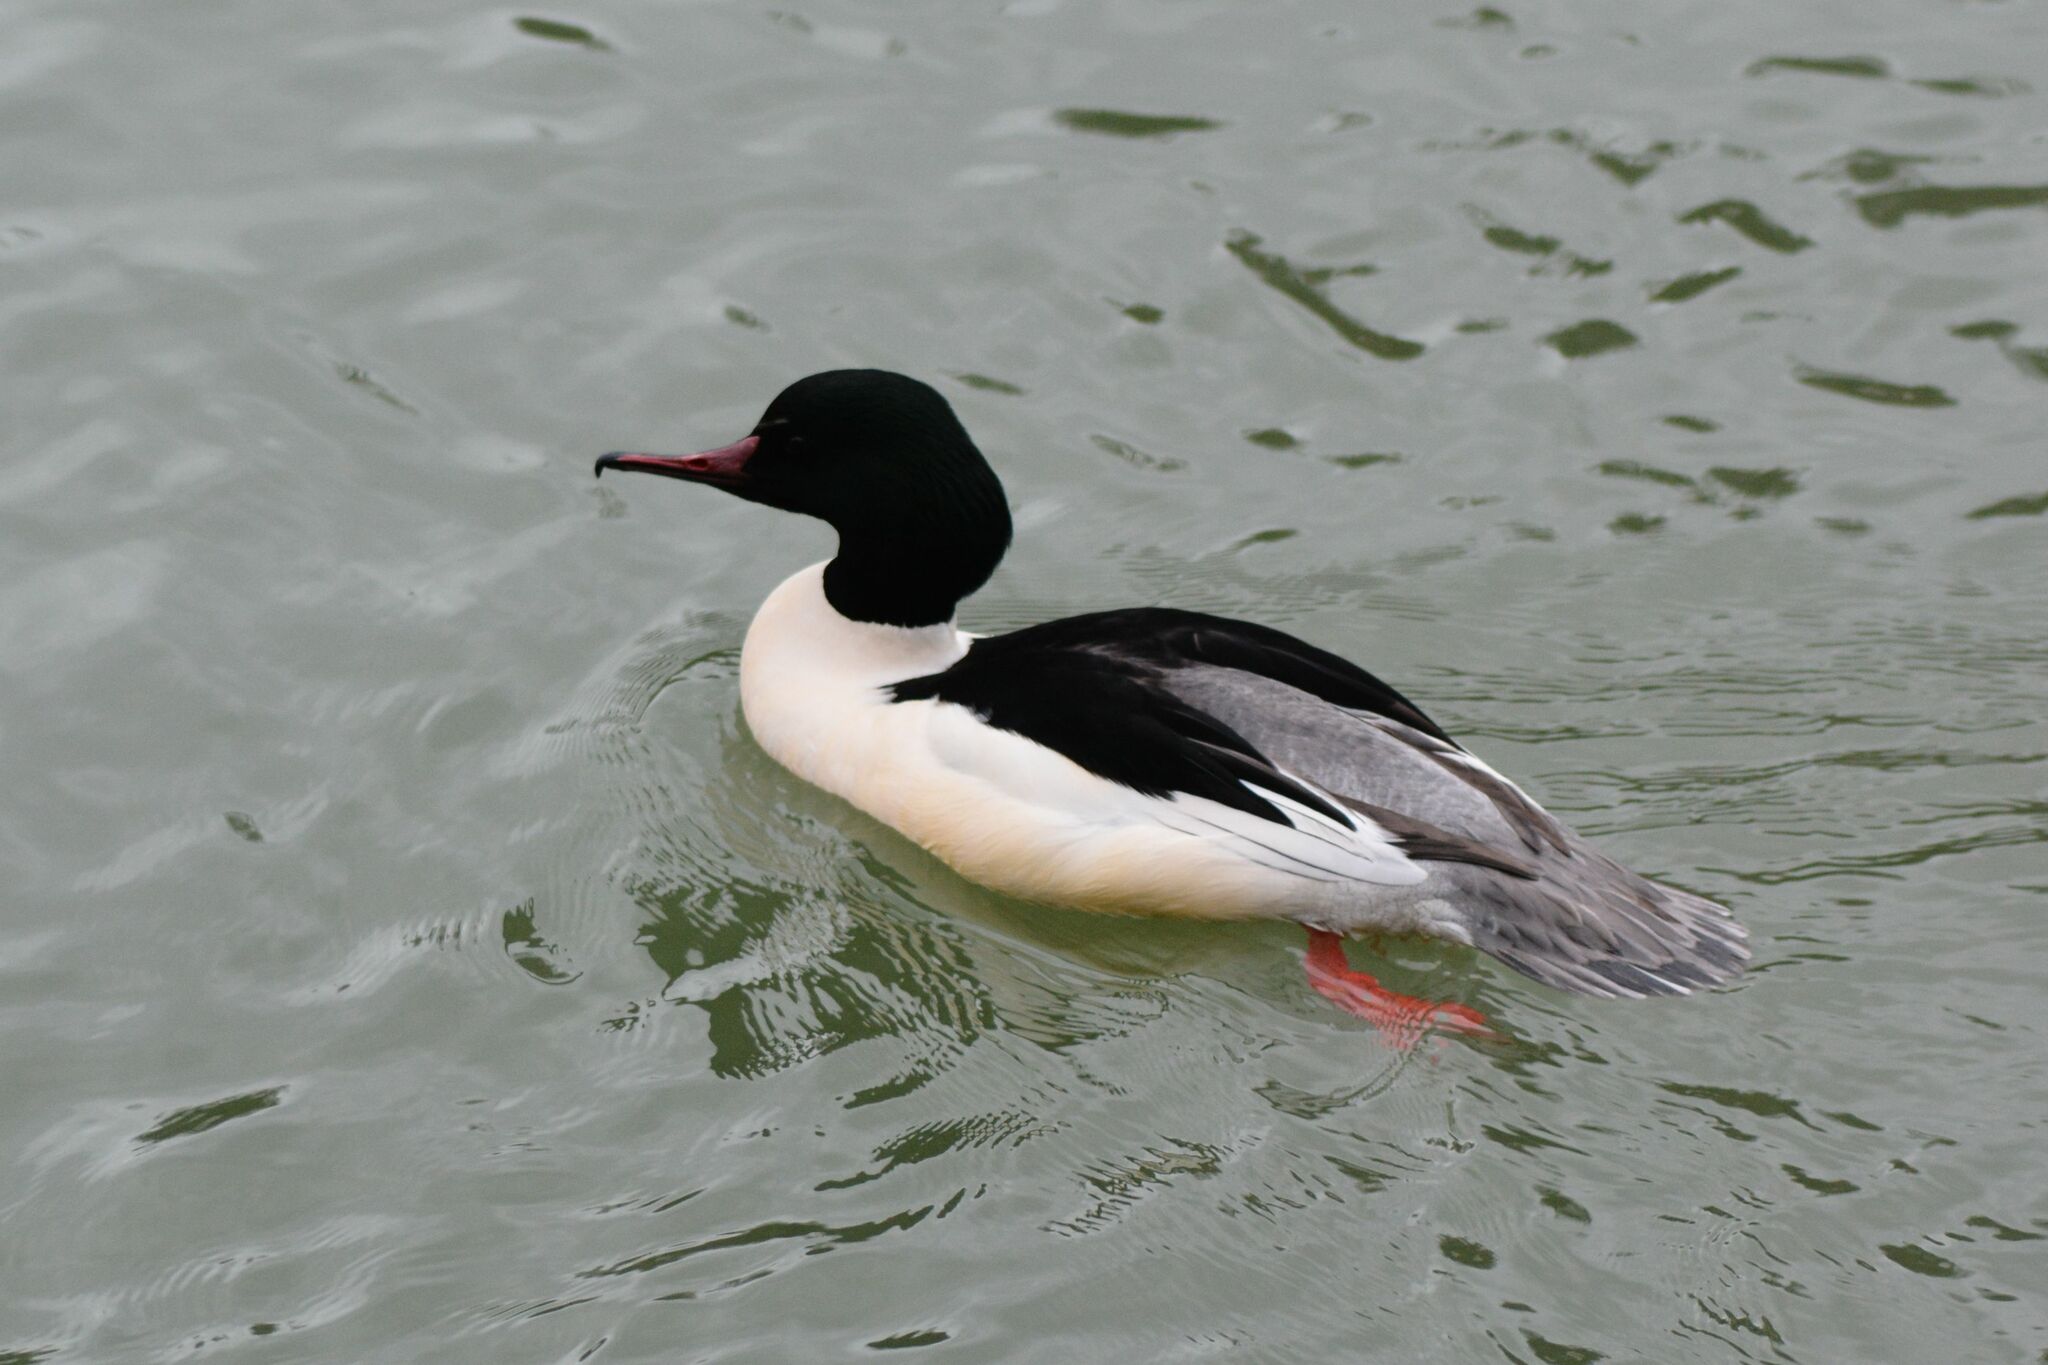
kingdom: Animalia
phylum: Chordata
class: Aves
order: Anseriformes
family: Anatidae
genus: Mergus
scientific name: Mergus merganser
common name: Common merganser
